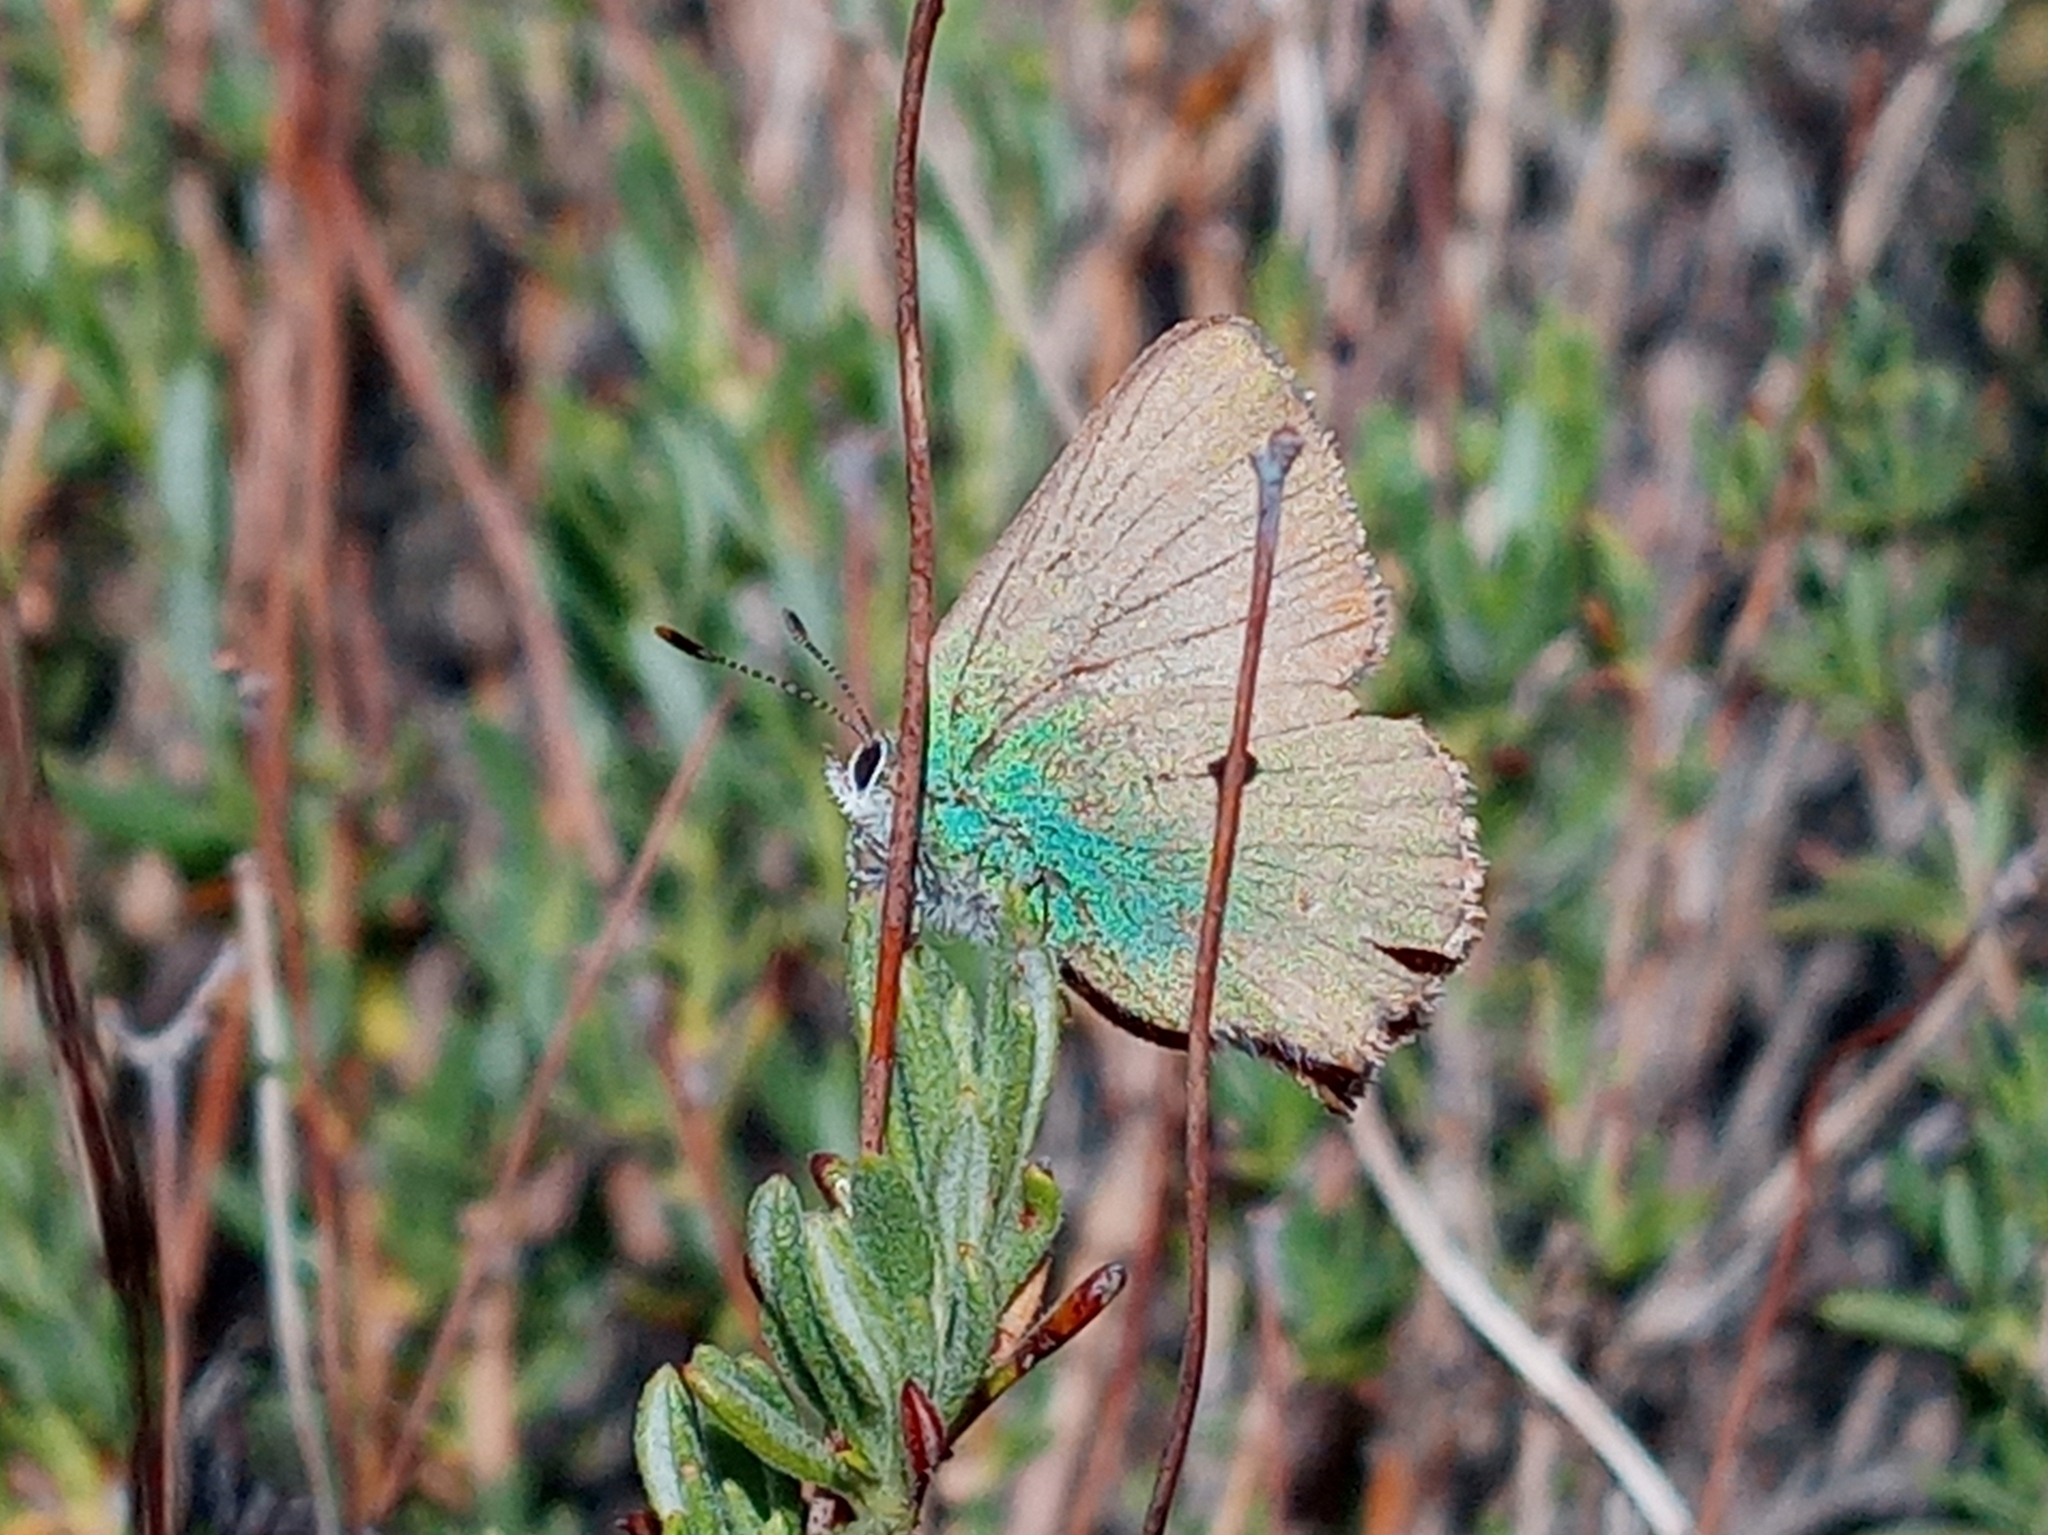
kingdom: Animalia
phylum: Arthropoda
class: Insecta
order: Lepidoptera
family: Lycaenidae
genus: Callophrys
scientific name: Callophrys dumetorum
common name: Bramble hairstreak
